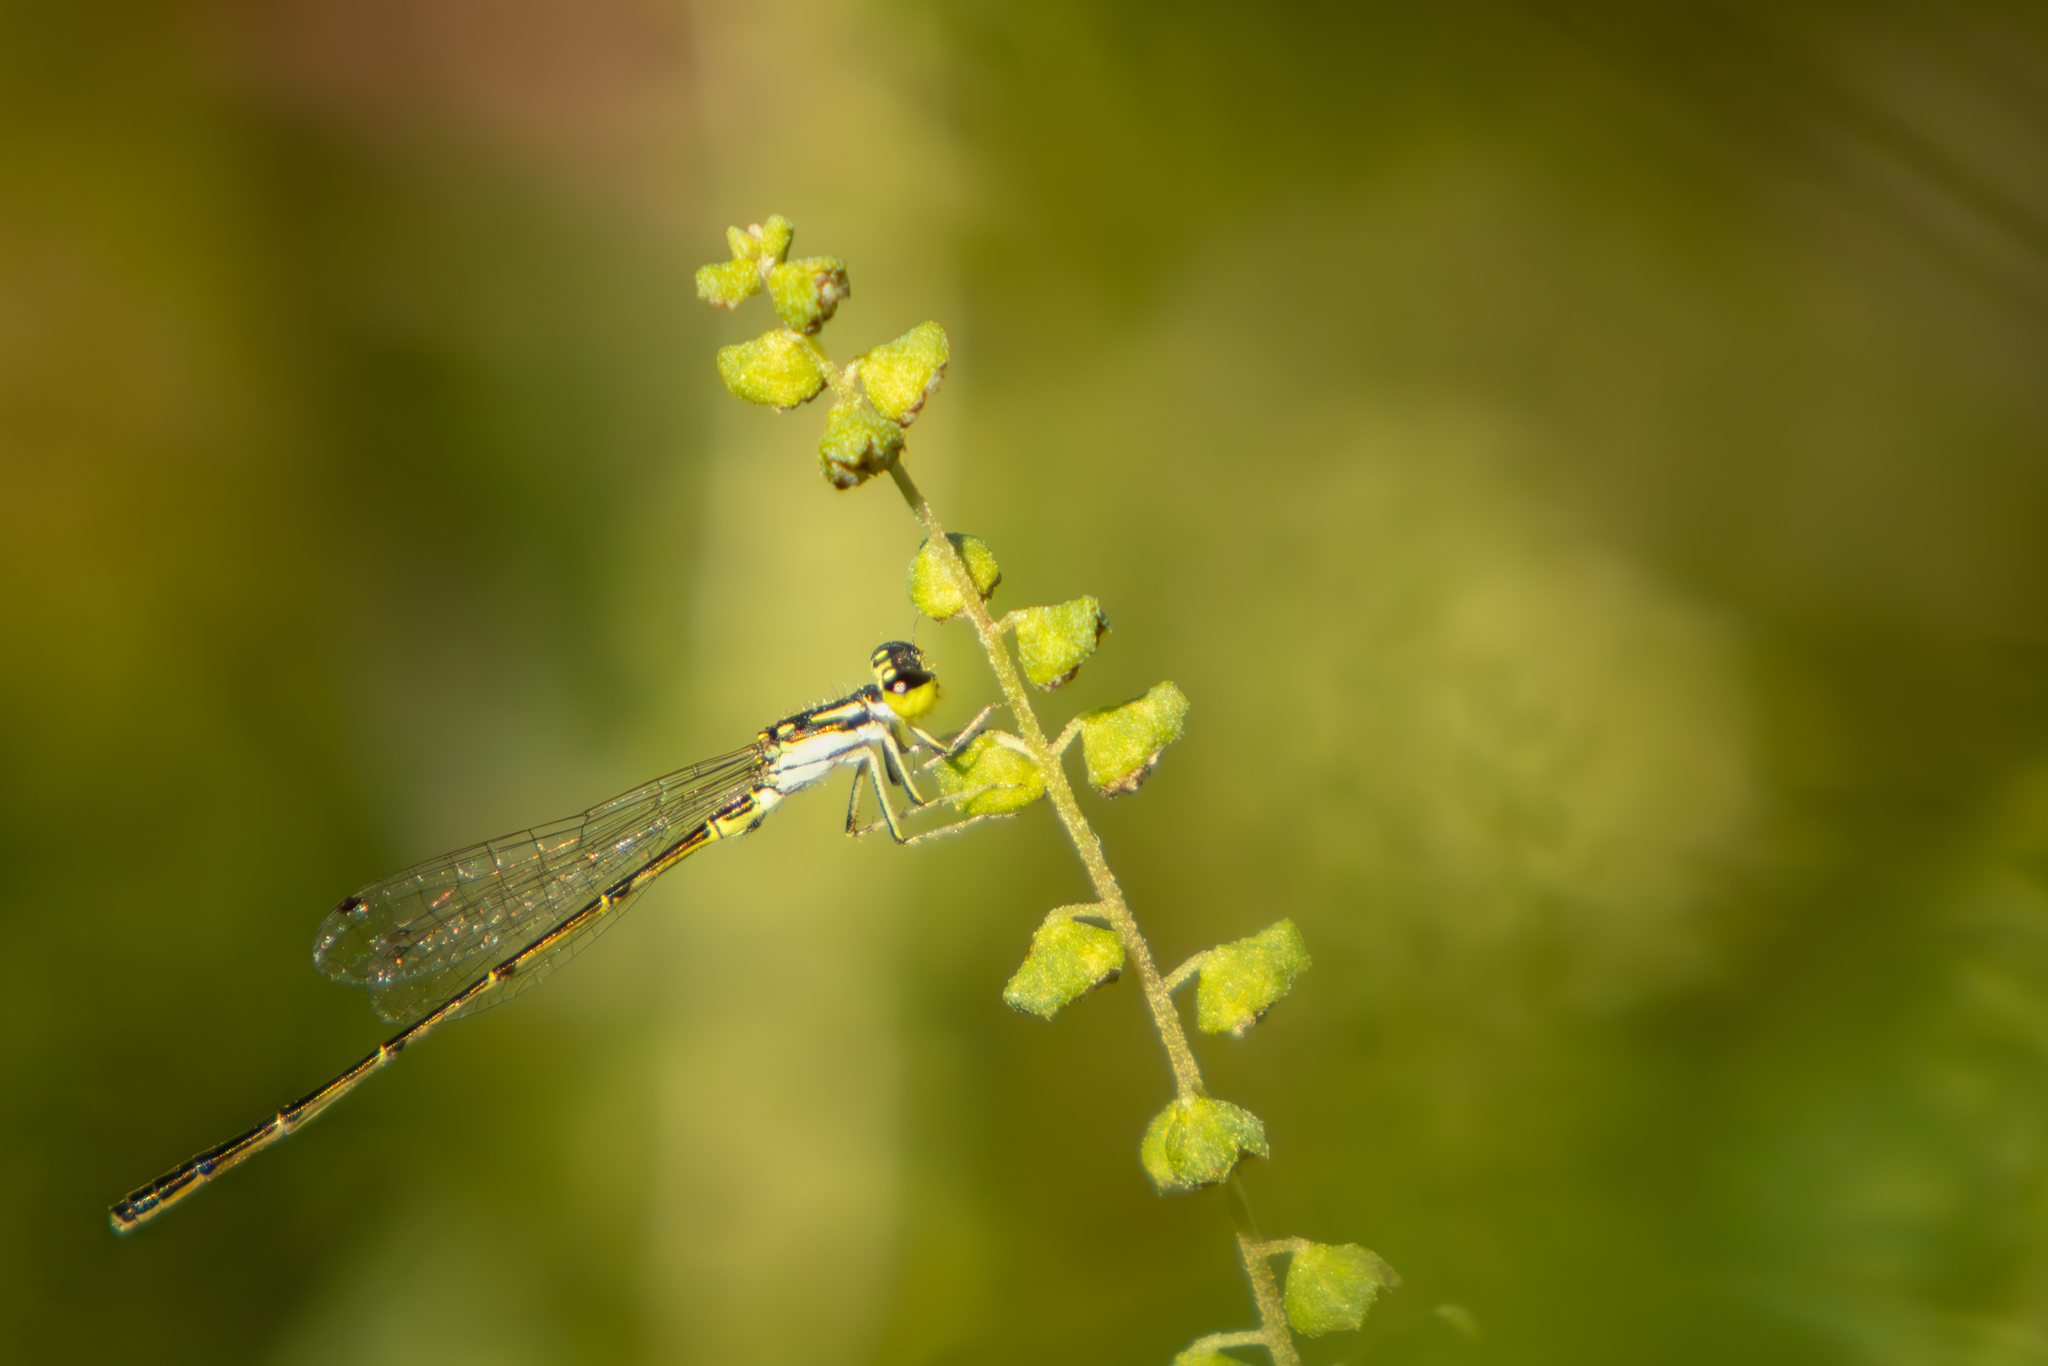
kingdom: Animalia
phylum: Arthropoda
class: Insecta
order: Odonata
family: Coenagrionidae
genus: Ischnura
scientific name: Ischnura posita
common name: Fragile forktail
